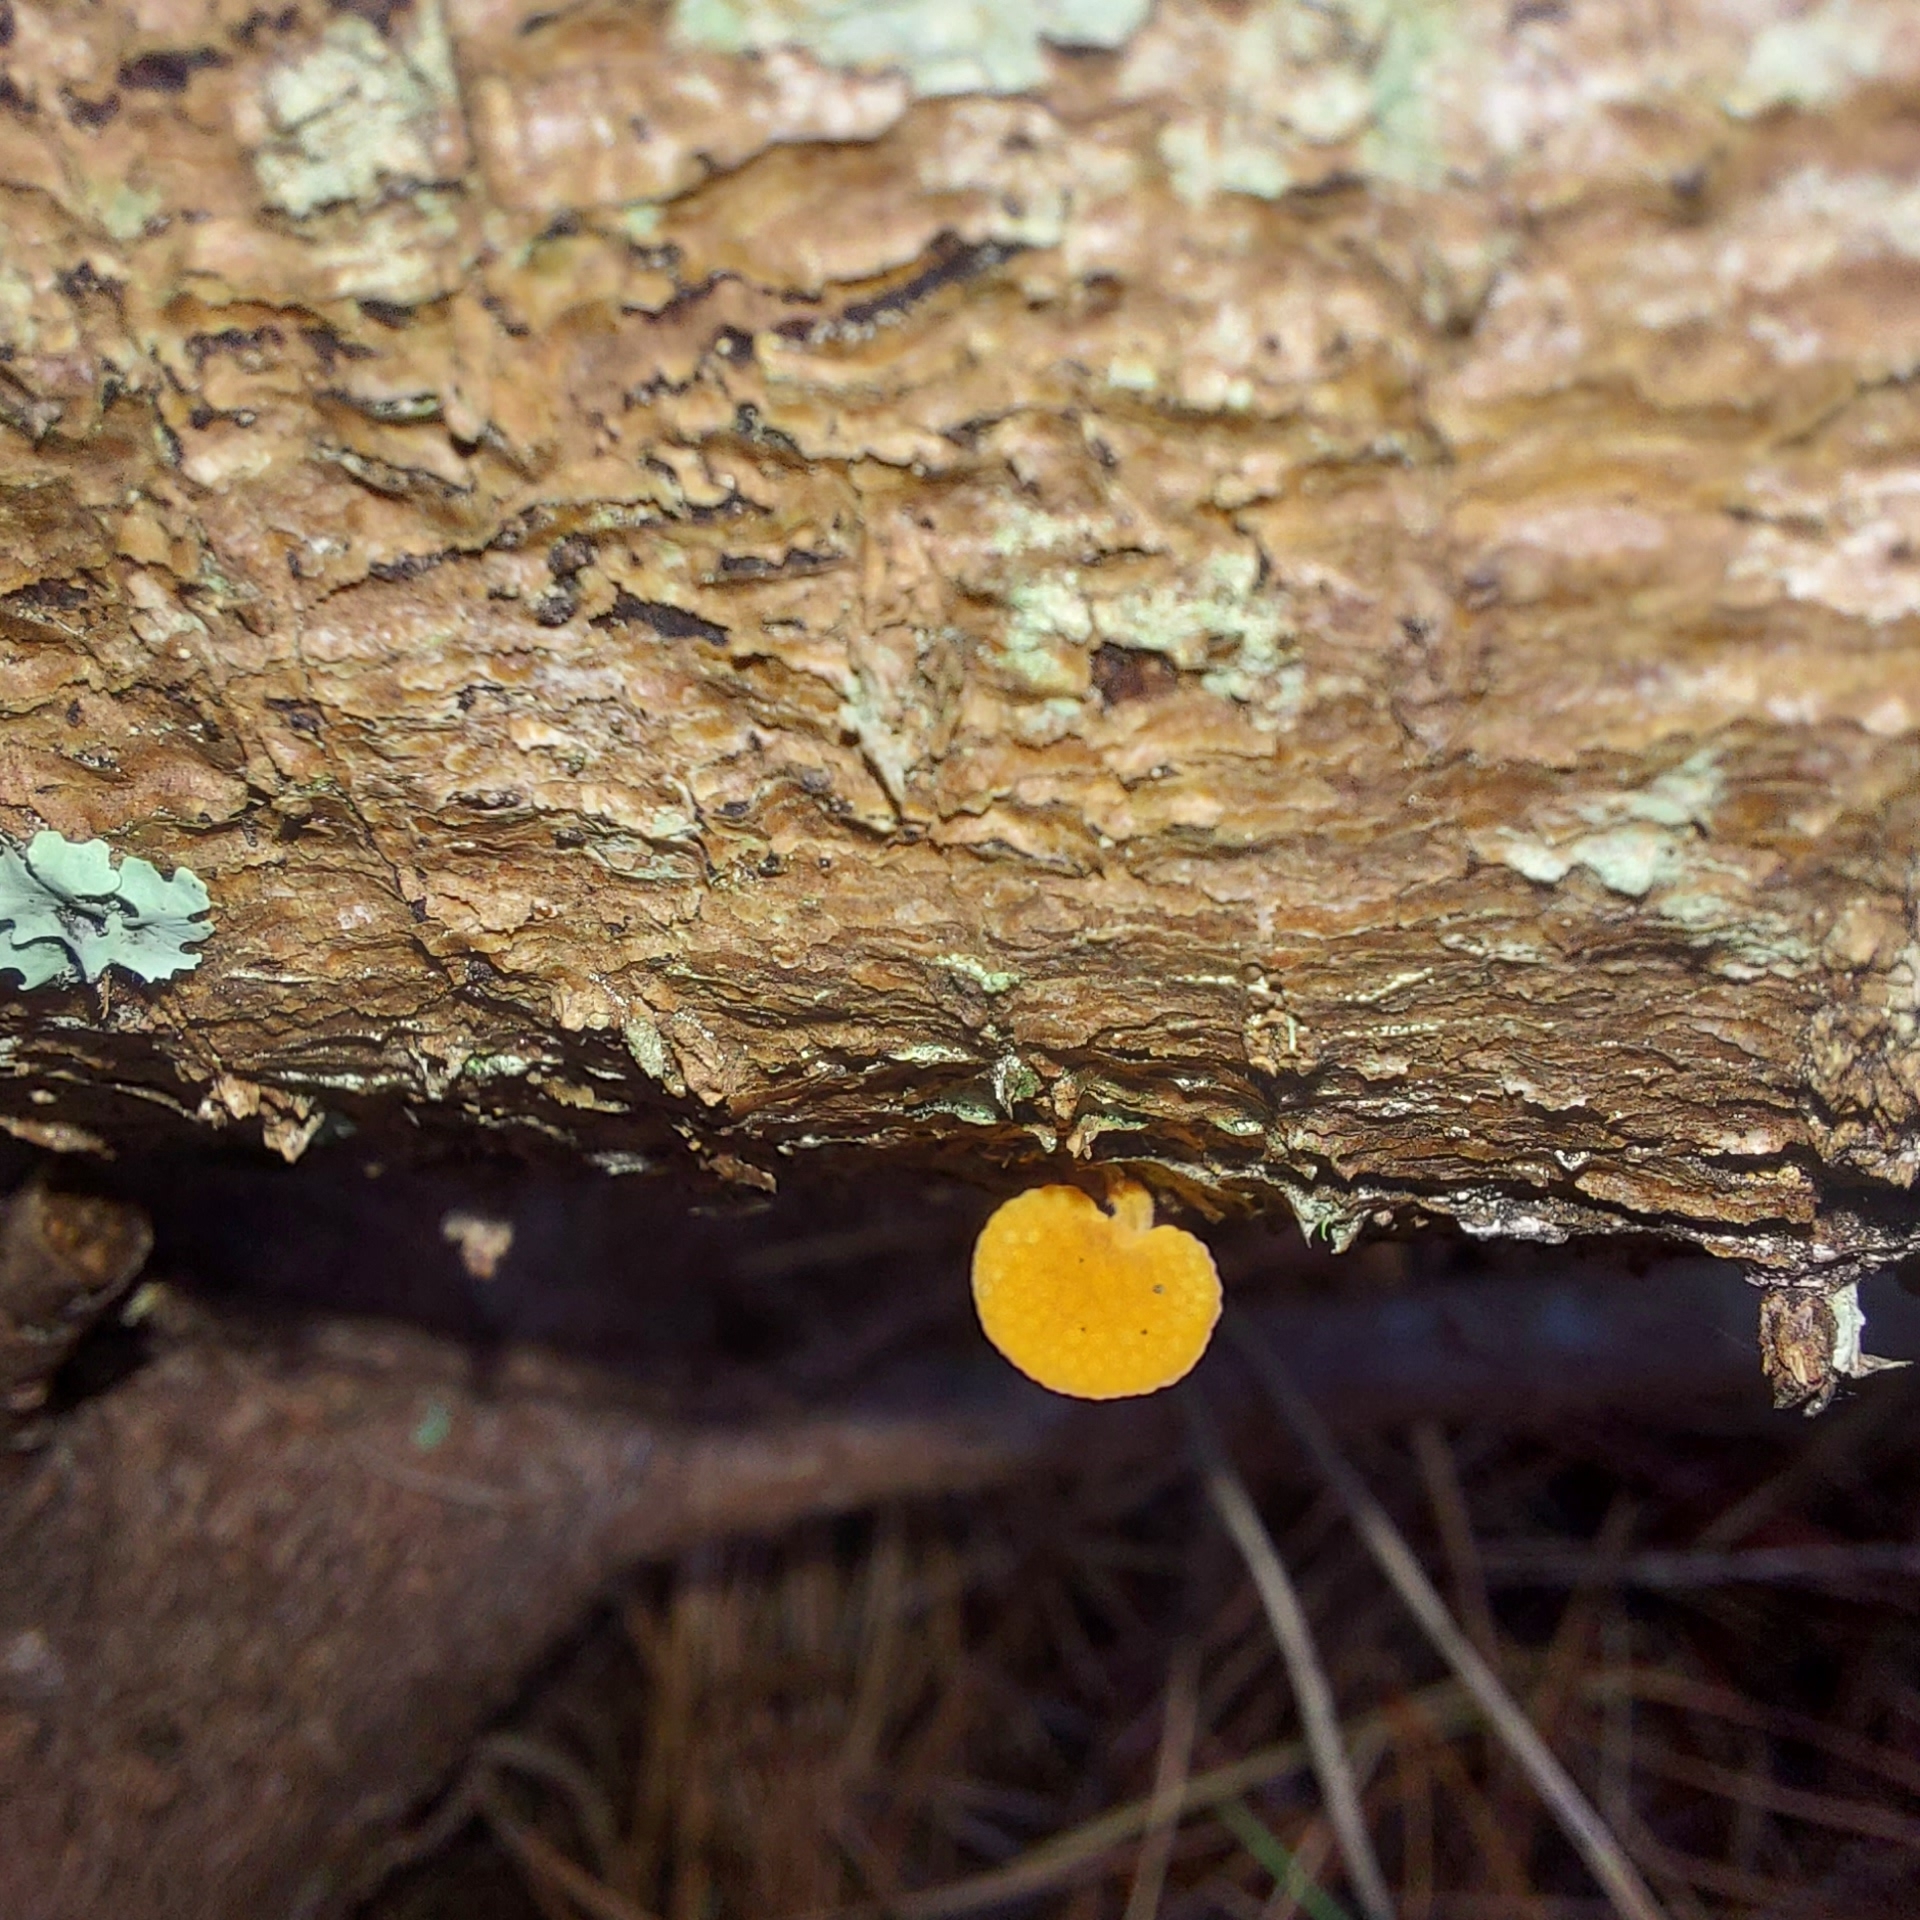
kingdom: Fungi
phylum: Basidiomycota
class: Agaricomycetes
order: Agaricales
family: Mycenaceae
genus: Favolaschia
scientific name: Favolaschia claudopus
